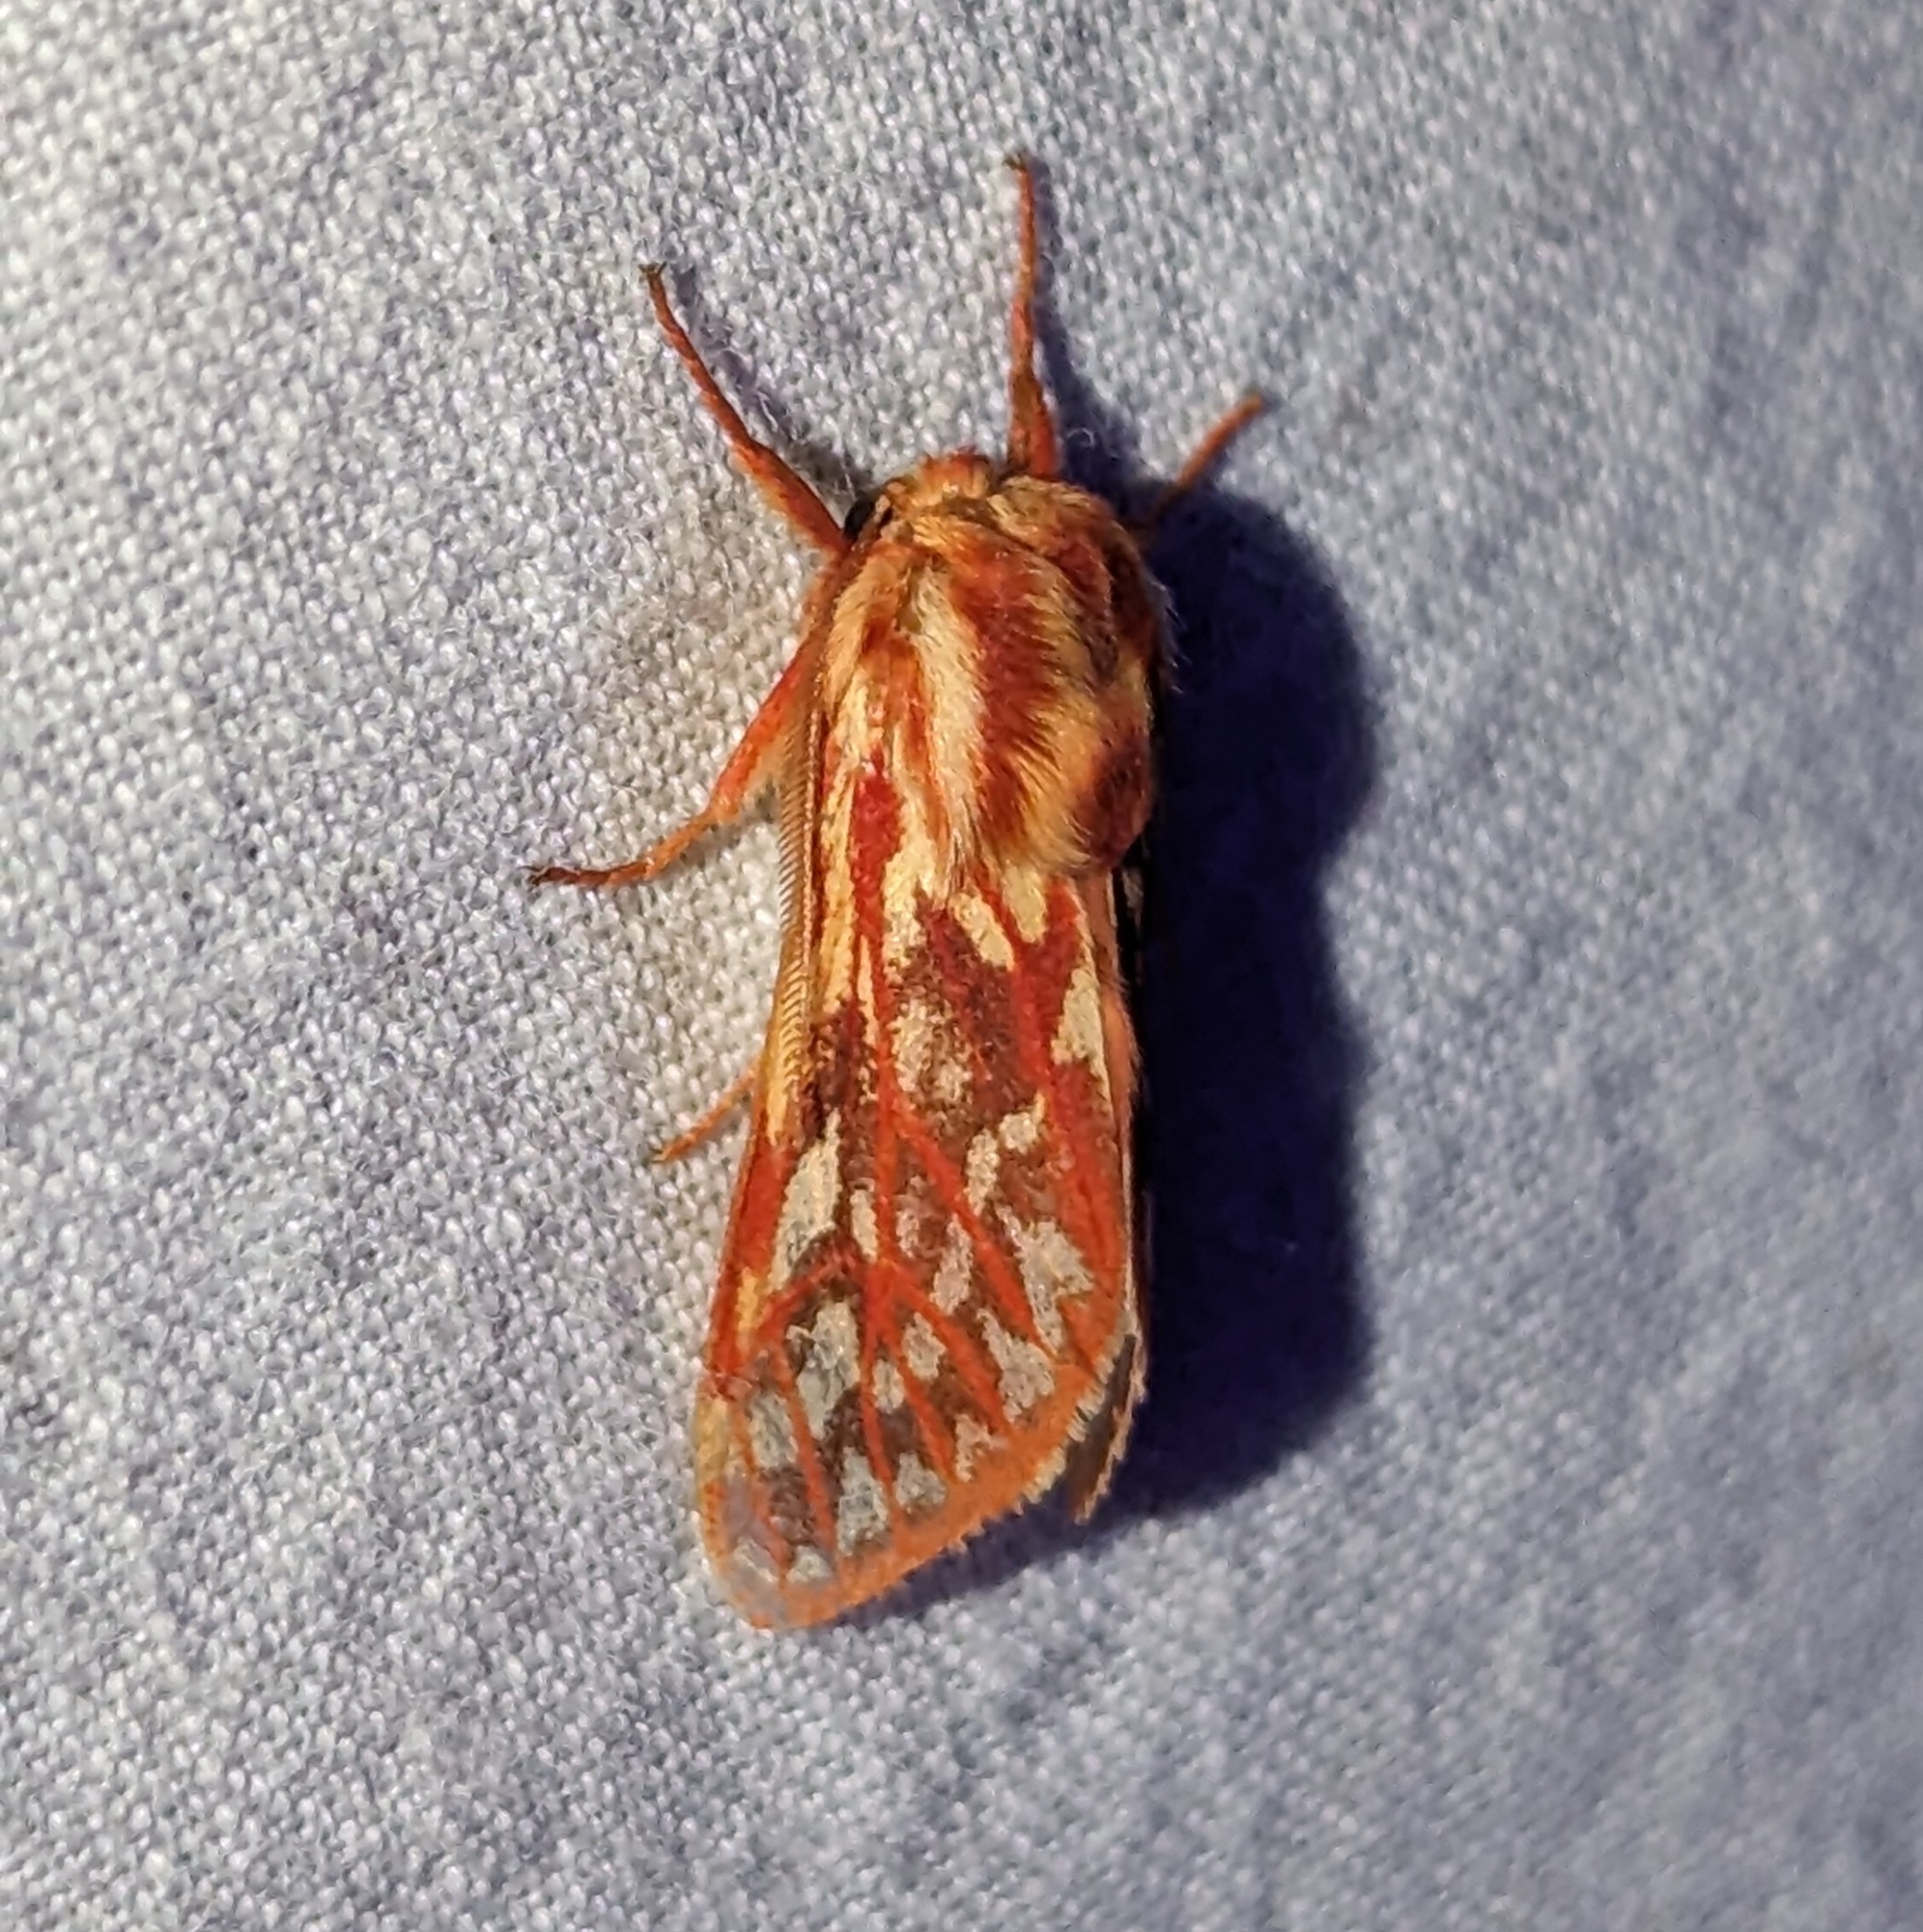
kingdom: Animalia
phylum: Arthropoda
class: Insecta
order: Lepidoptera
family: Erebidae
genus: Lophocampa
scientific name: Lophocampa roseata
